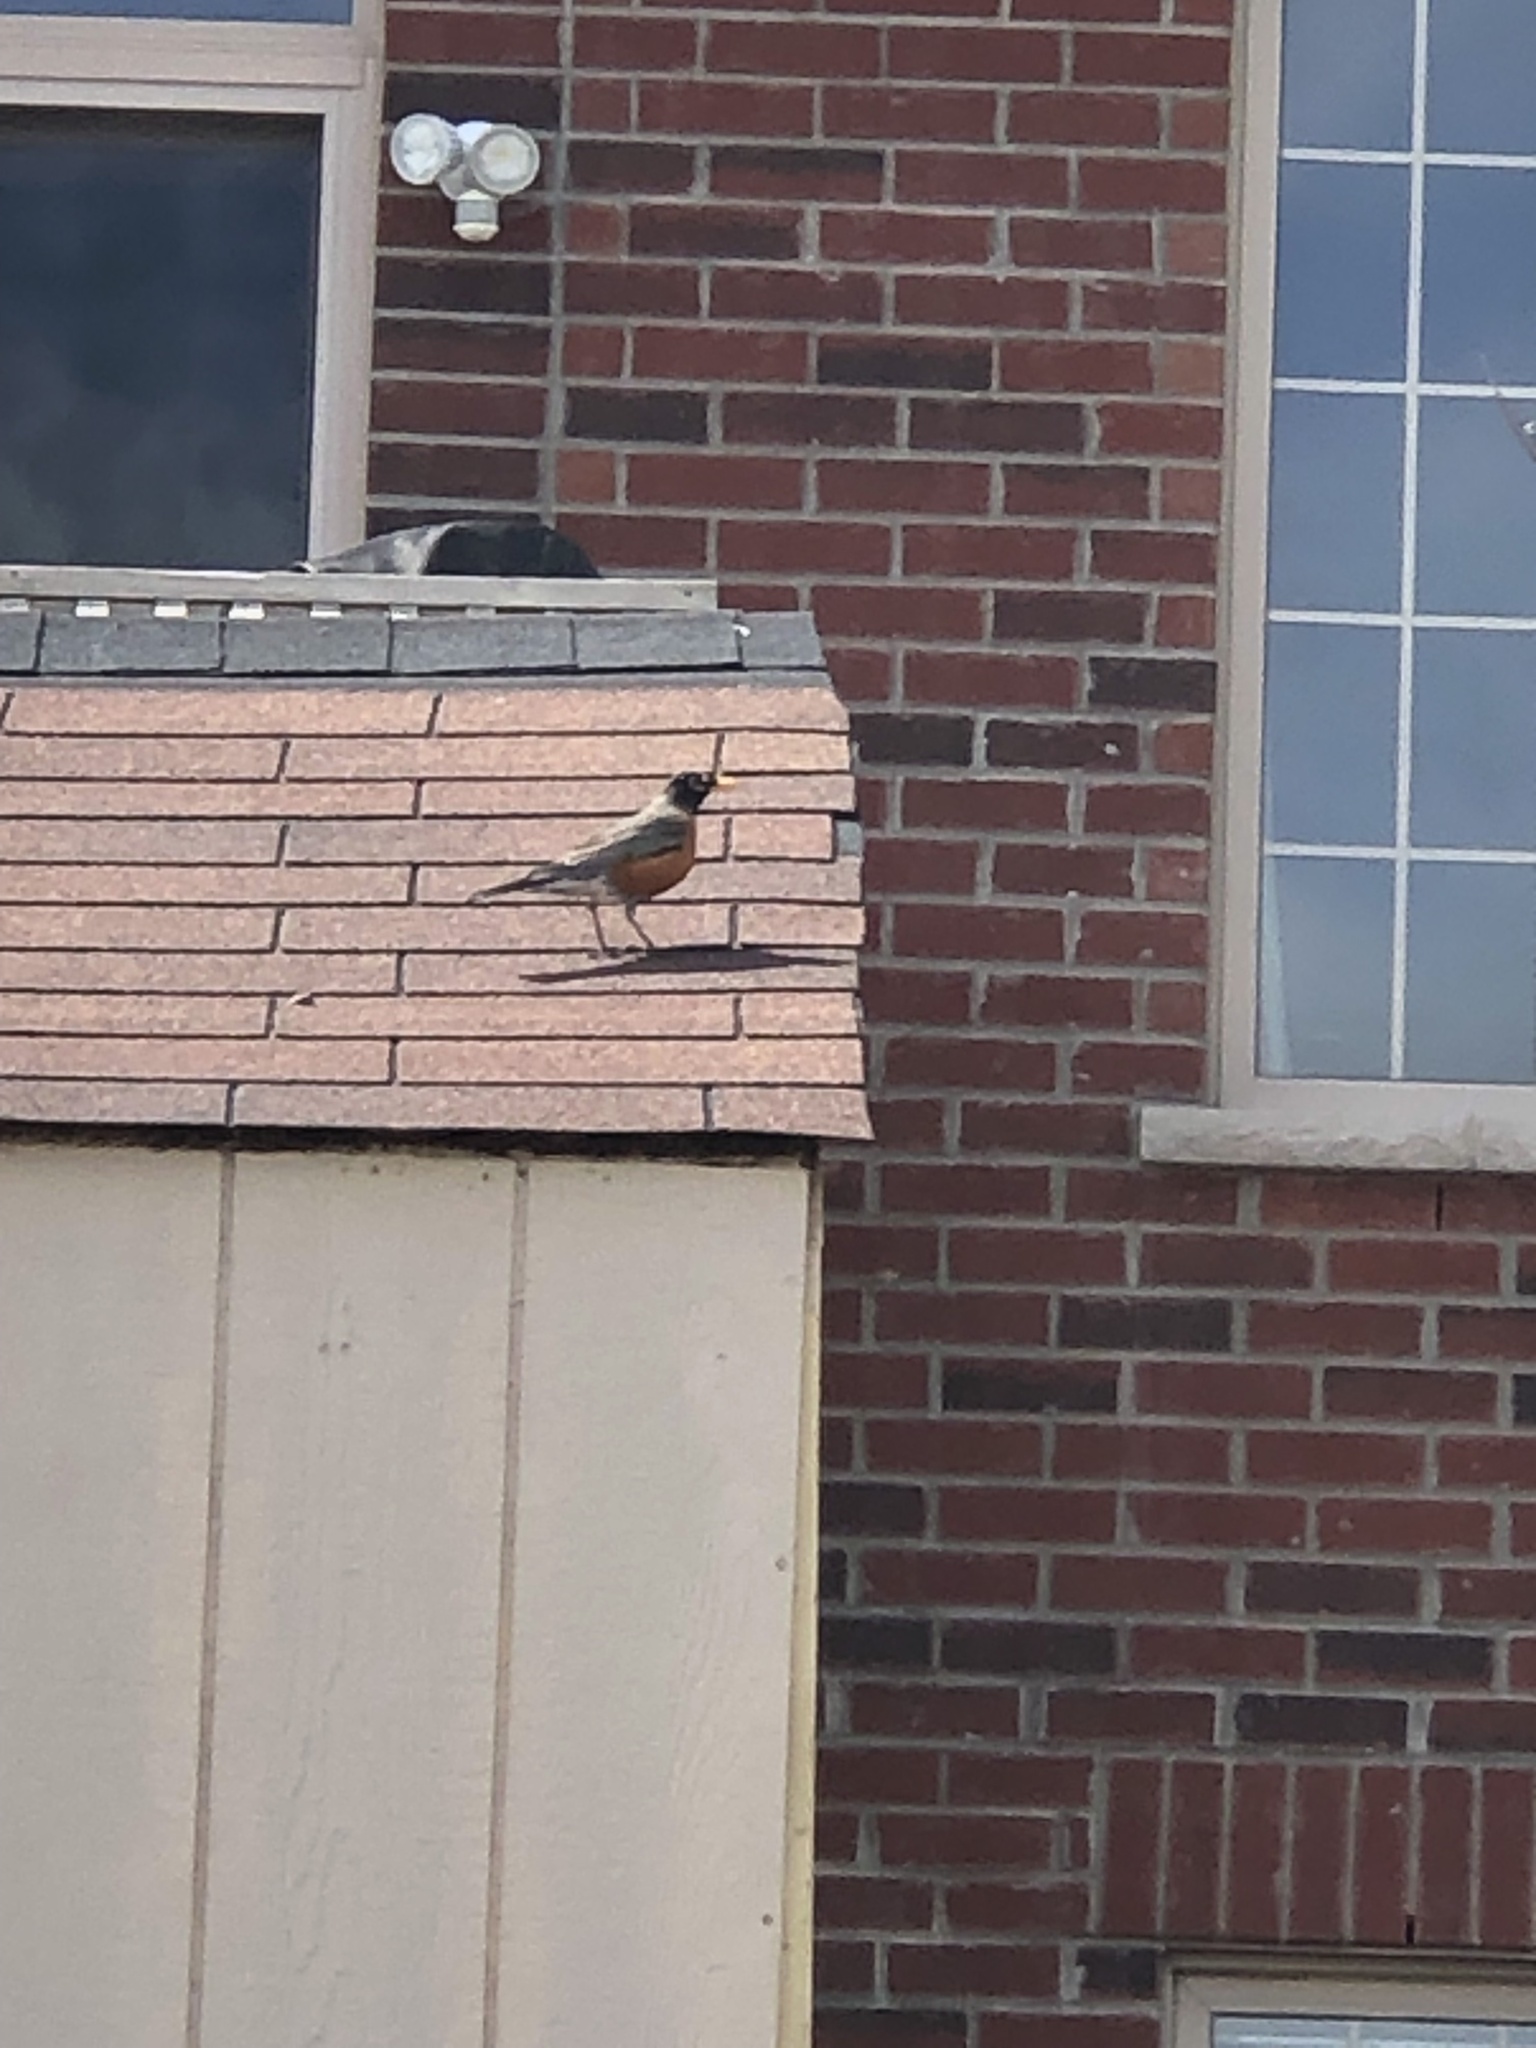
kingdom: Animalia
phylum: Chordata
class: Aves
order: Passeriformes
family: Turdidae
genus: Turdus
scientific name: Turdus migratorius
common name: American robin
